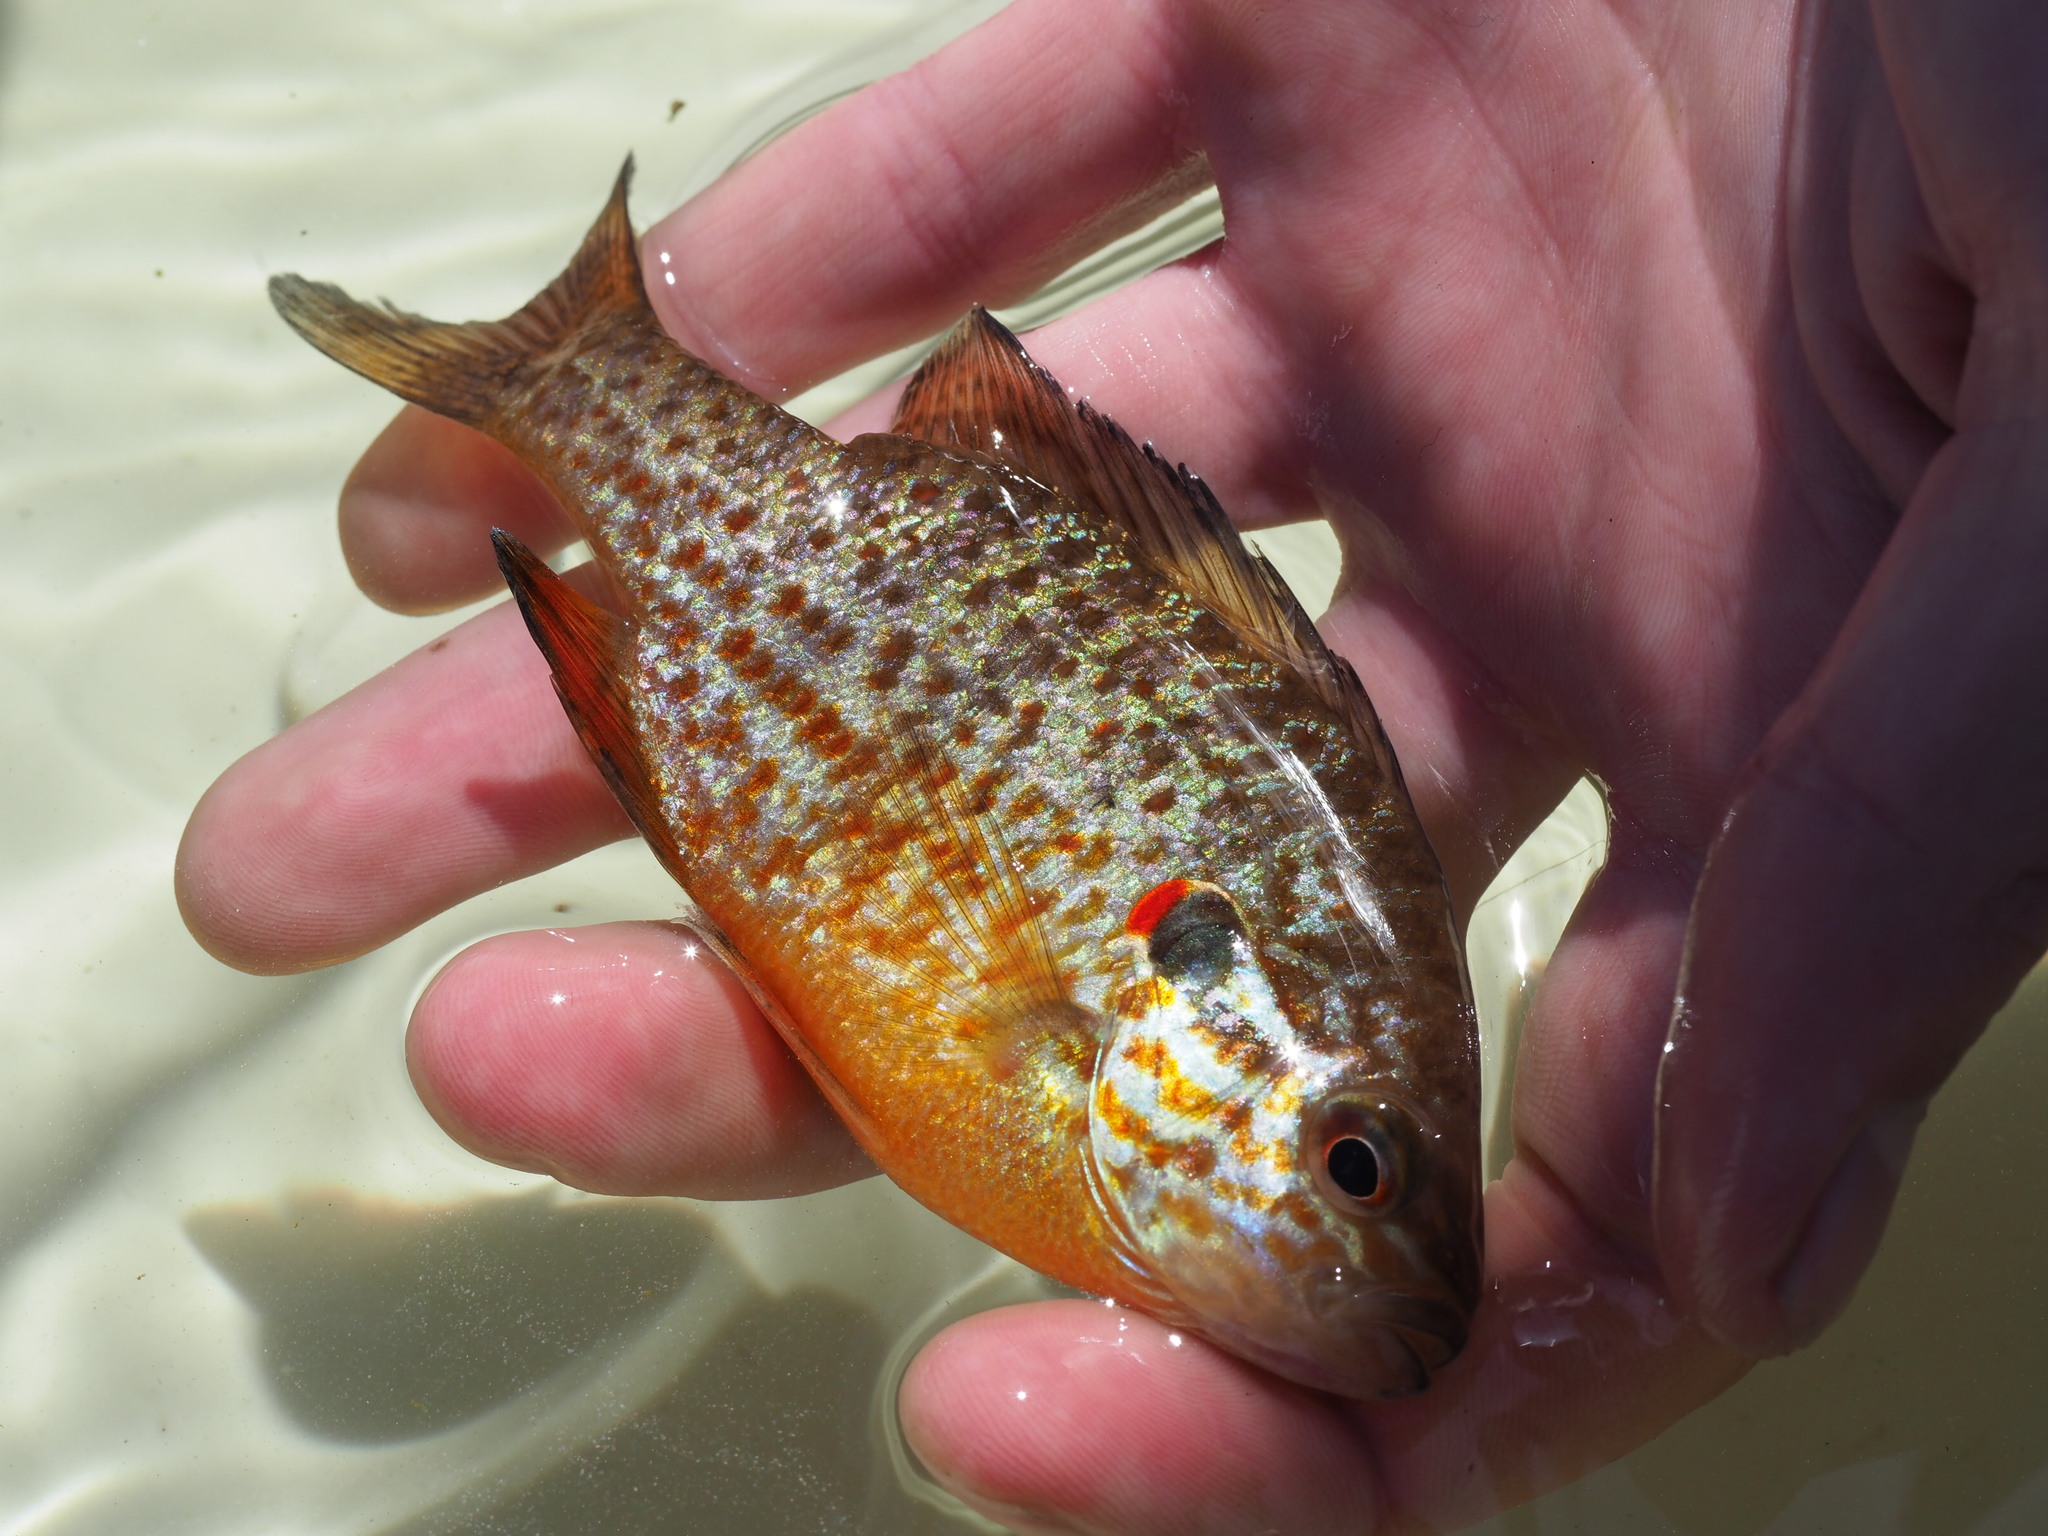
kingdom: Animalia
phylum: Chordata
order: Perciformes
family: Centrarchidae
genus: Lepomis
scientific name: Lepomis gibbosus
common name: Pumpkinseed
